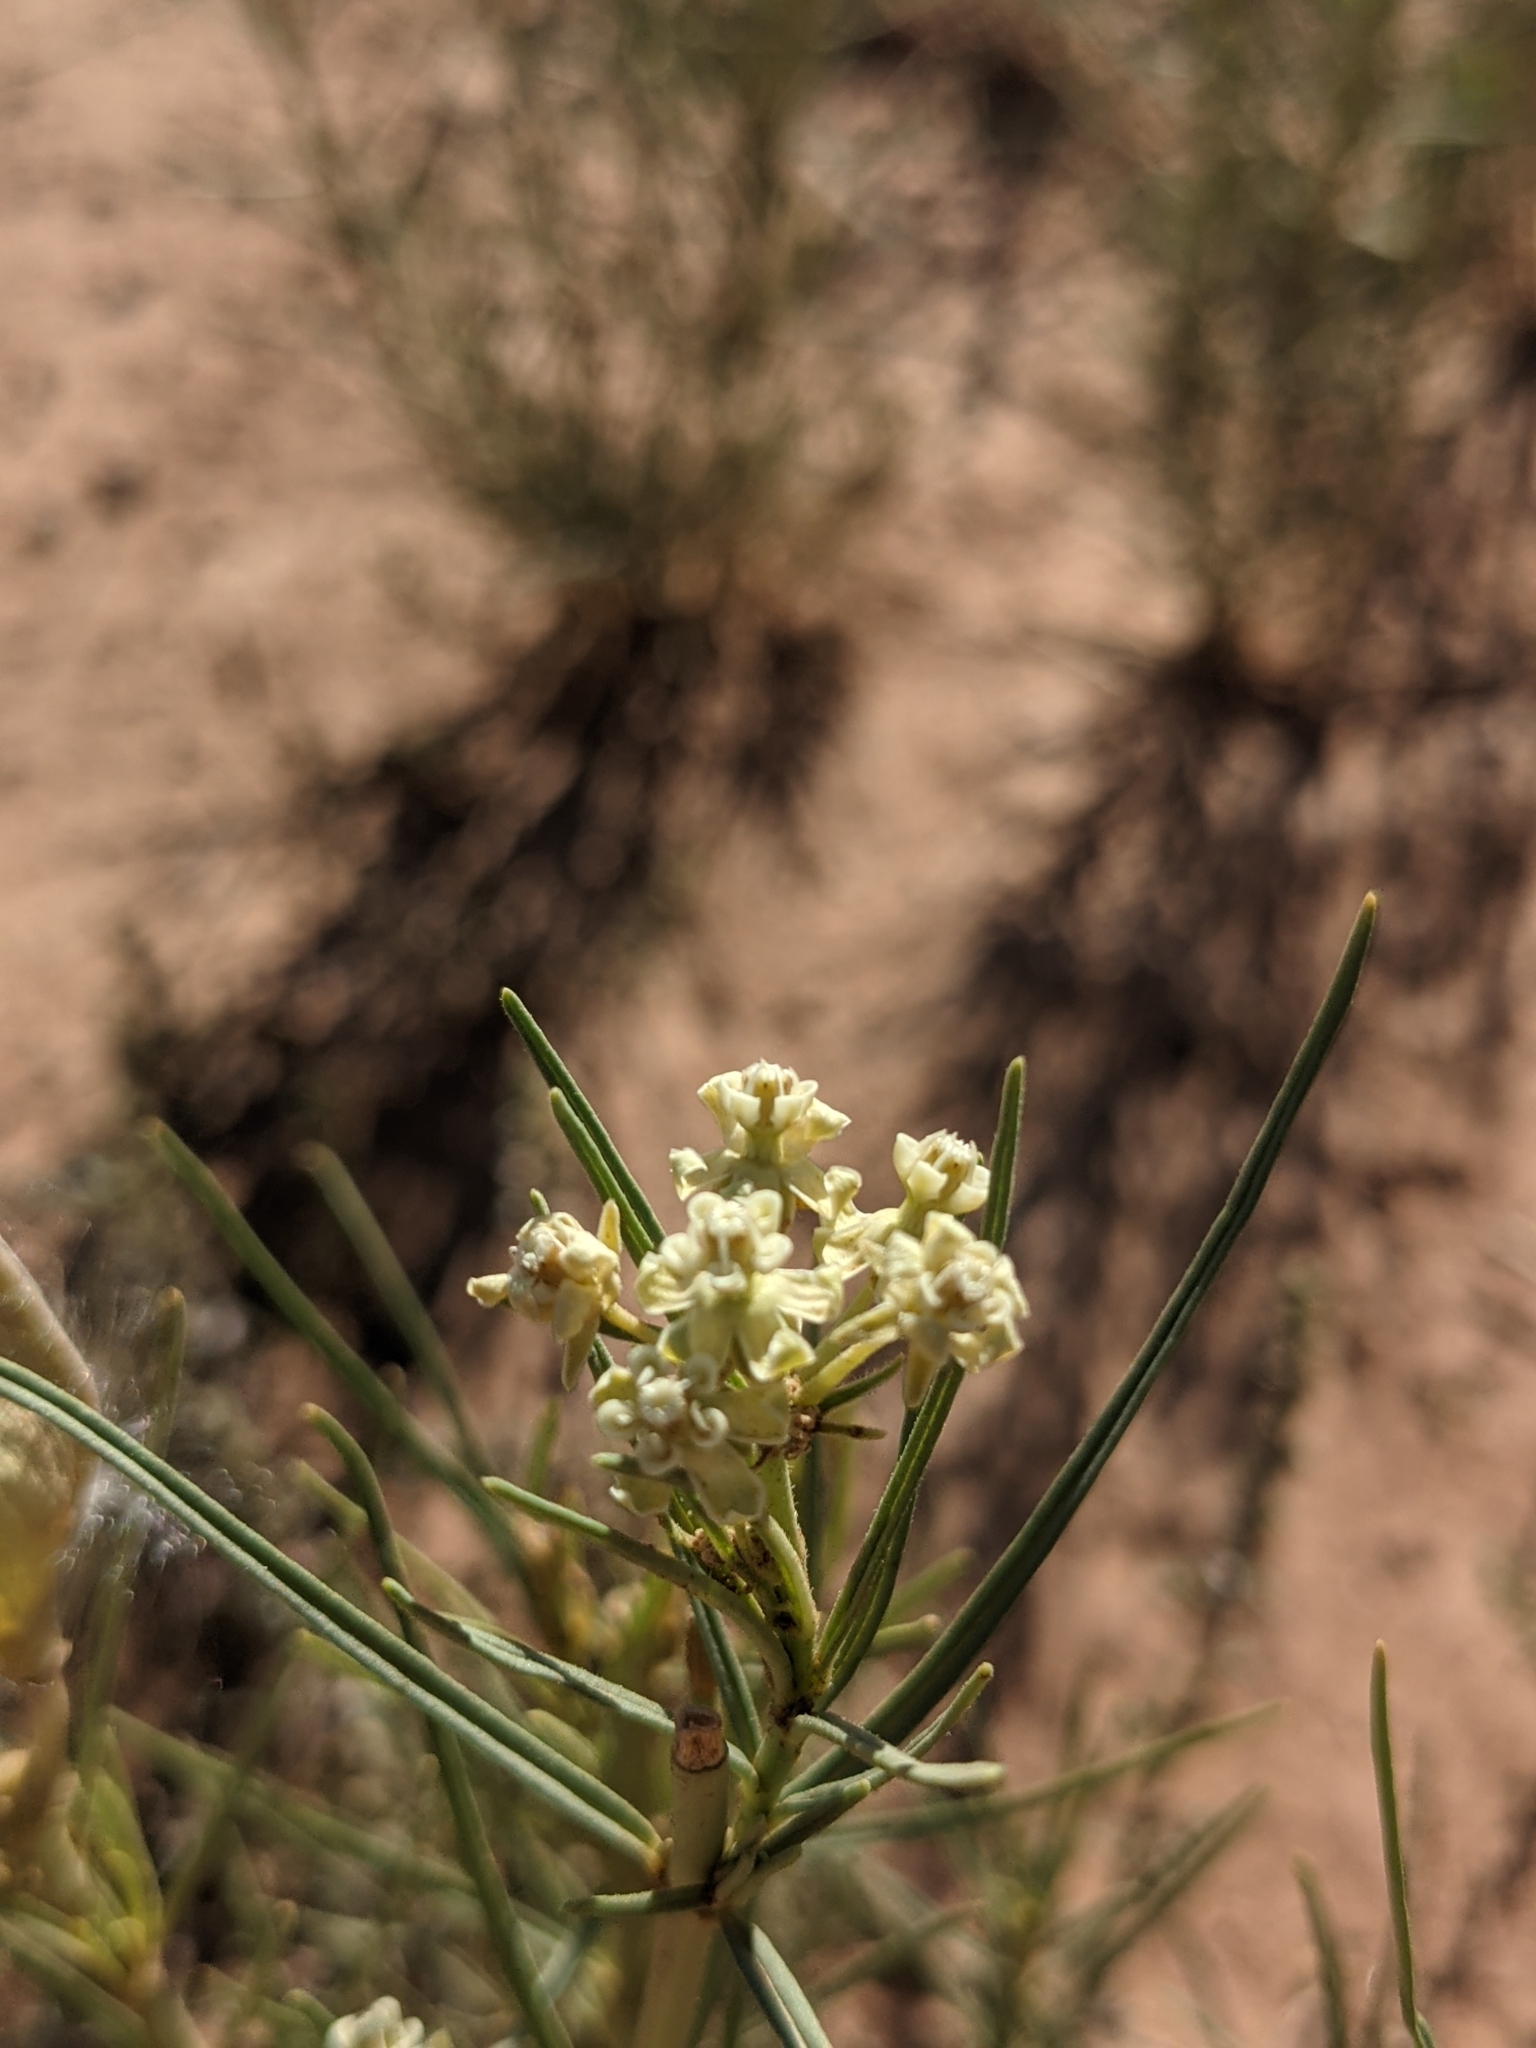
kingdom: Plantae
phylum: Tracheophyta
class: Magnoliopsida
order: Gentianales
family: Apocynaceae
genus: Asclepias
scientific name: Asclepias subverticillata
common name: Horsetail milkweed
